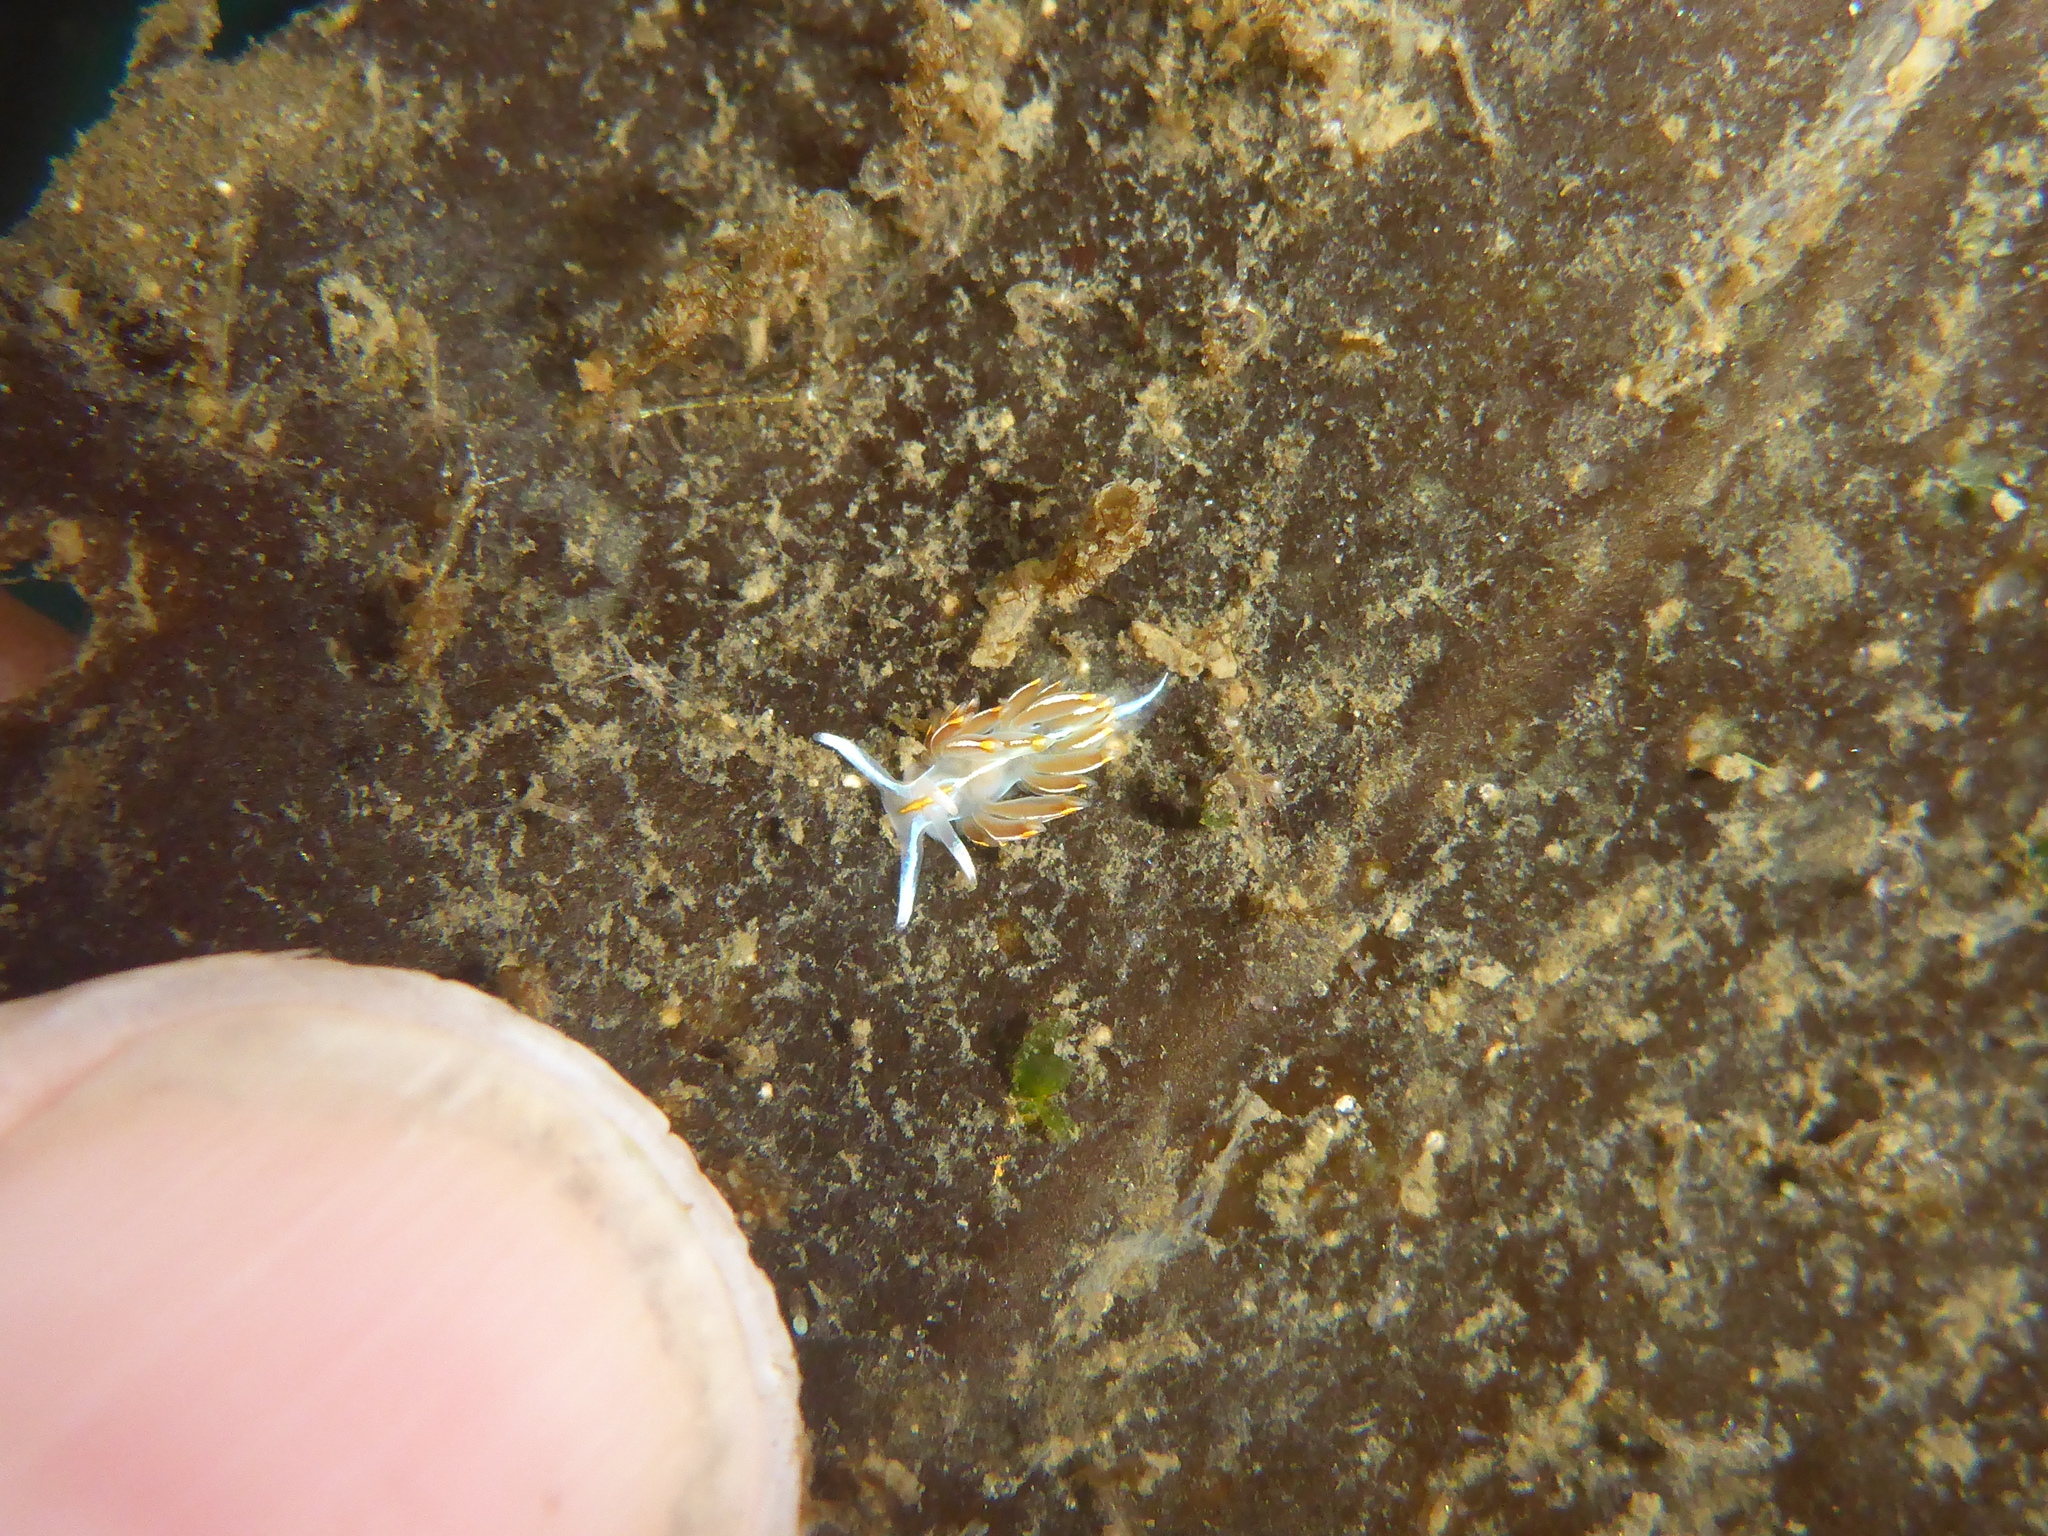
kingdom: Animalia
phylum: Mollusca
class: Gastropoda
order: Nudibranchia
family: Myrrhinidae
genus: Hermissenda
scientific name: Hermissenda crassicornis
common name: Hermissenda
